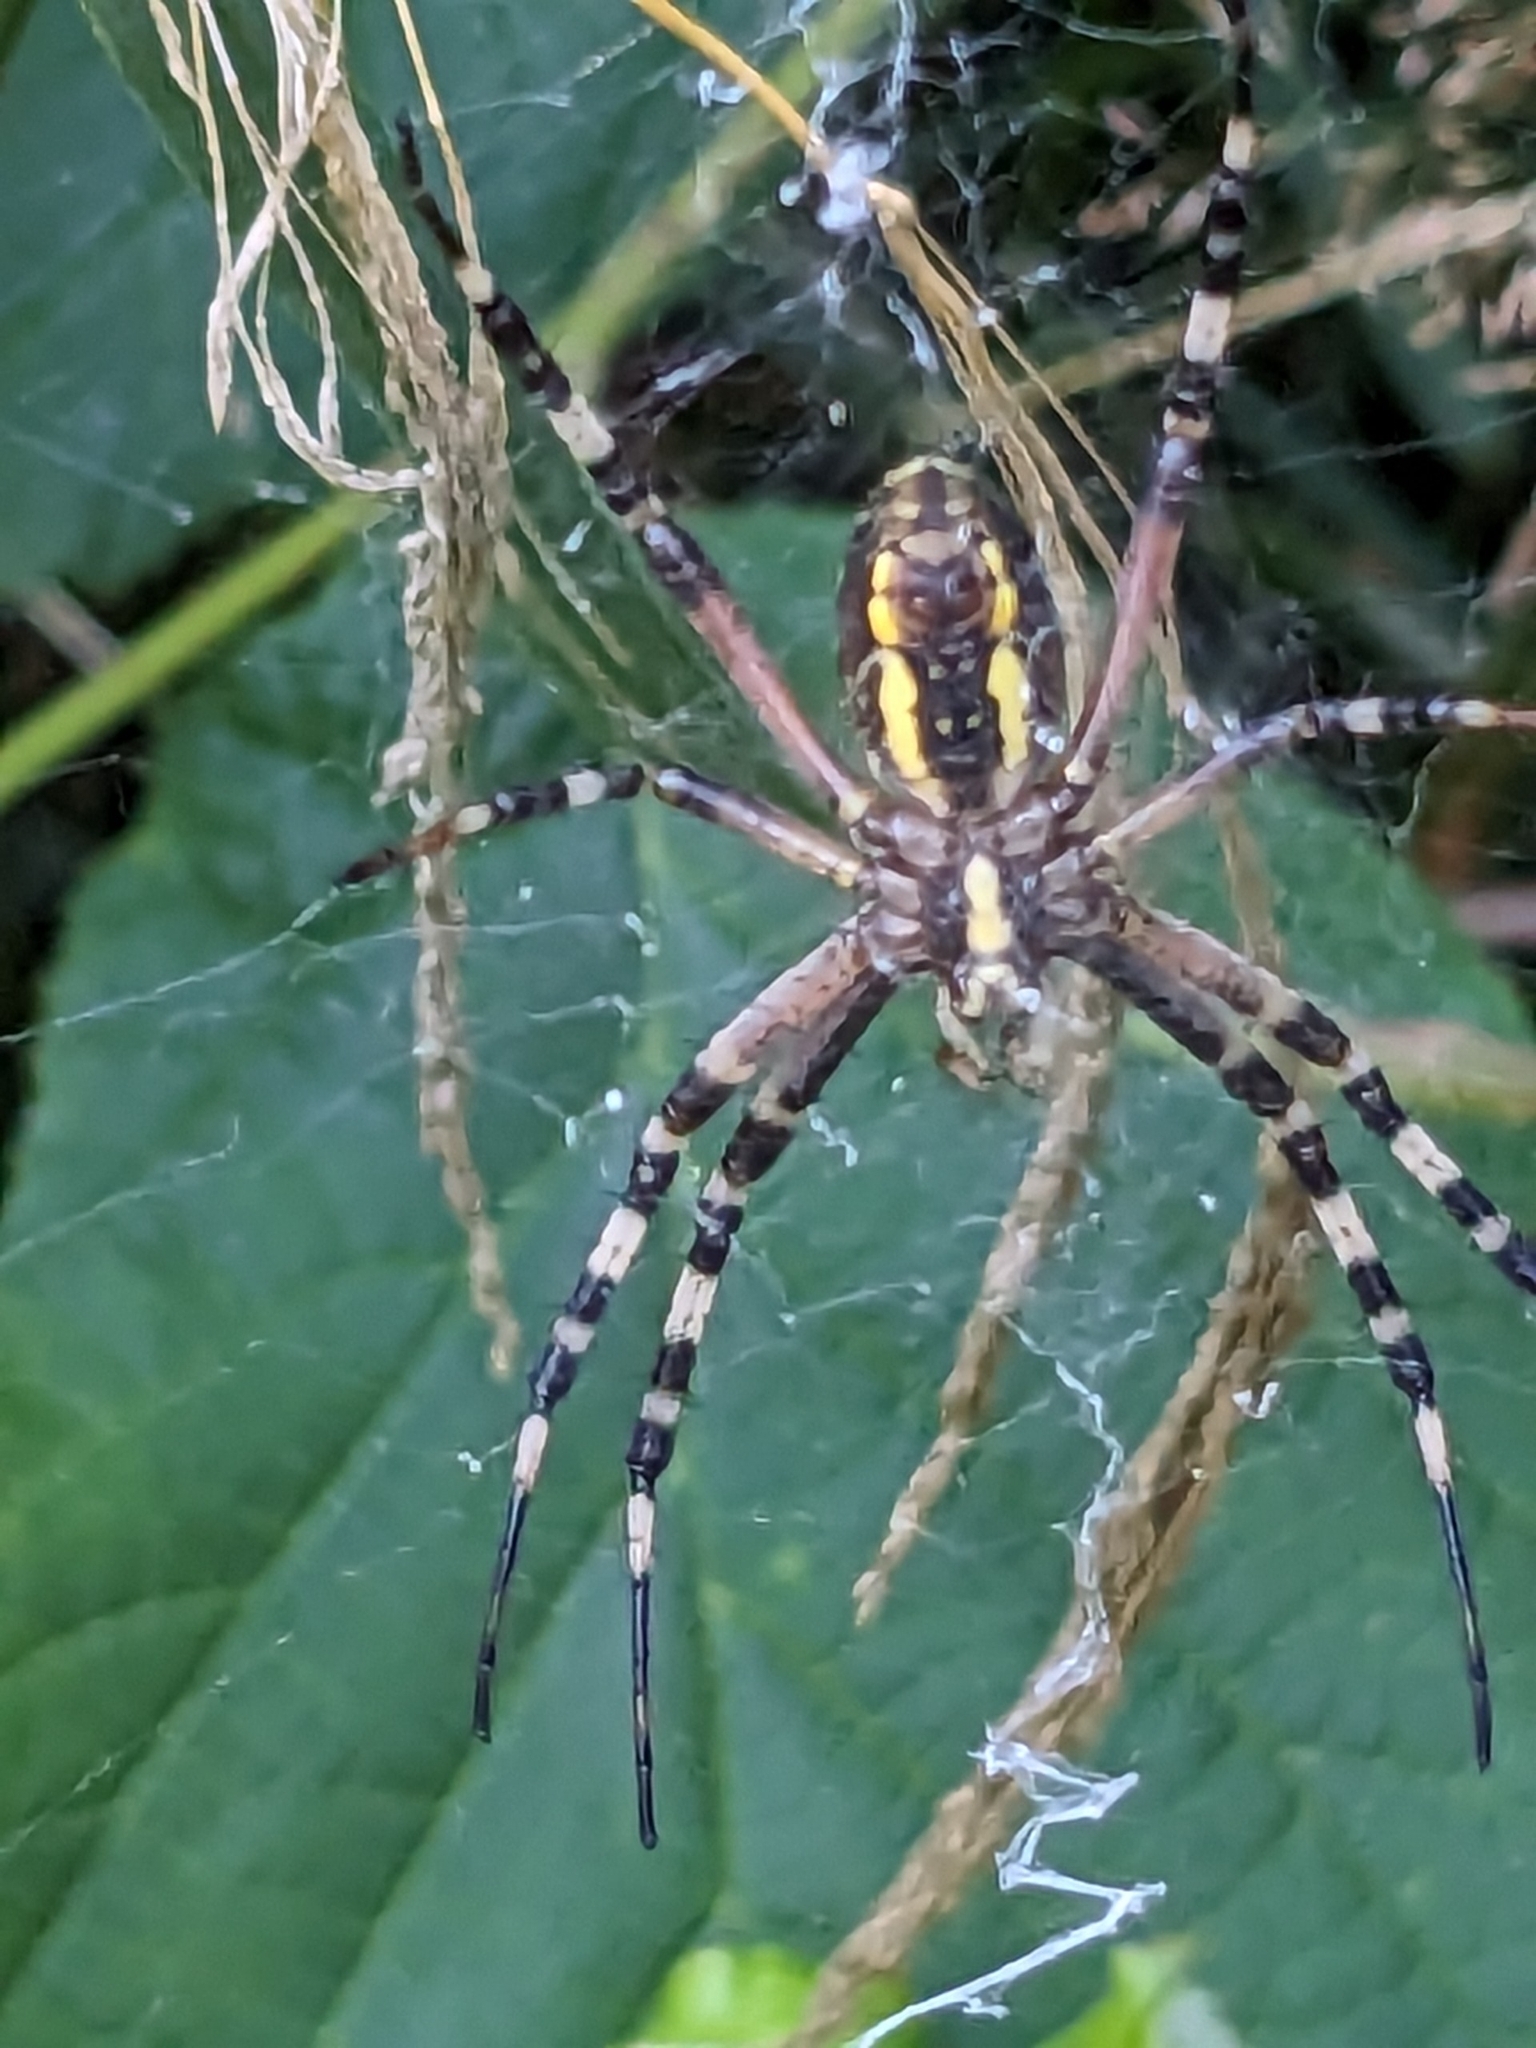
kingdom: Animalia
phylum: Arthropoda
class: Arachnida
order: Araneae
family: Araneidae
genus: Argiope
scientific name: Argiope bruennichi
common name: Wasp spider
